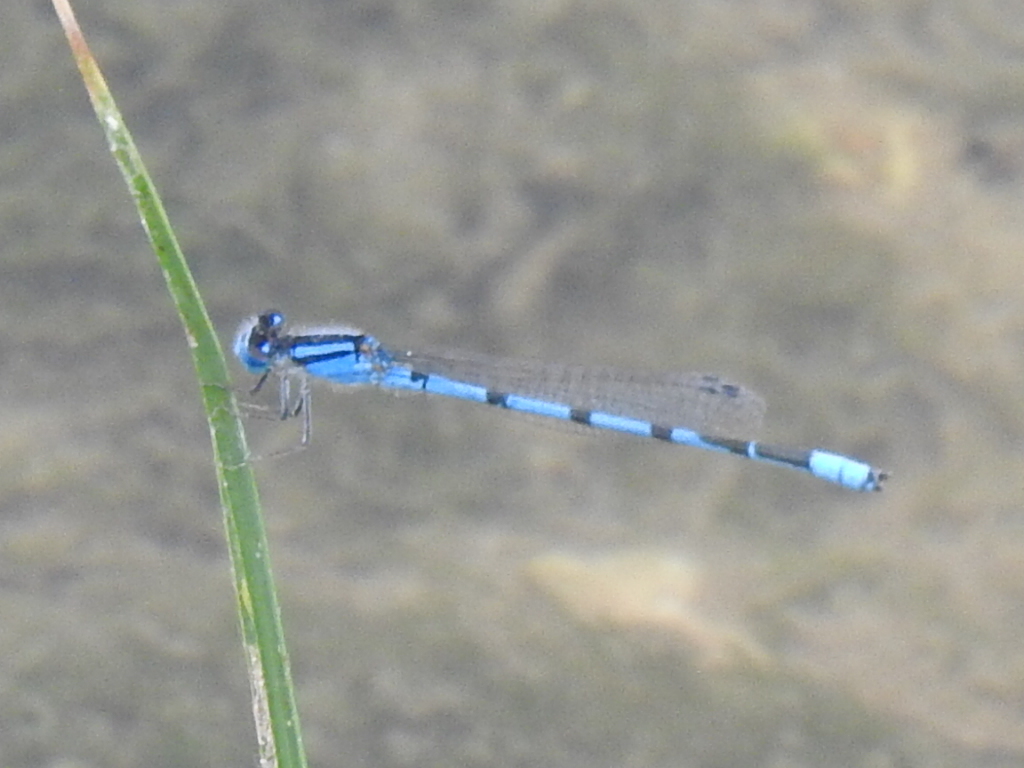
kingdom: Animalia
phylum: Arthropoda
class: Insecta
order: Odonata
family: Coenagrionidae
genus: Enallagma
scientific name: Enallagma civile
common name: Damselfly
